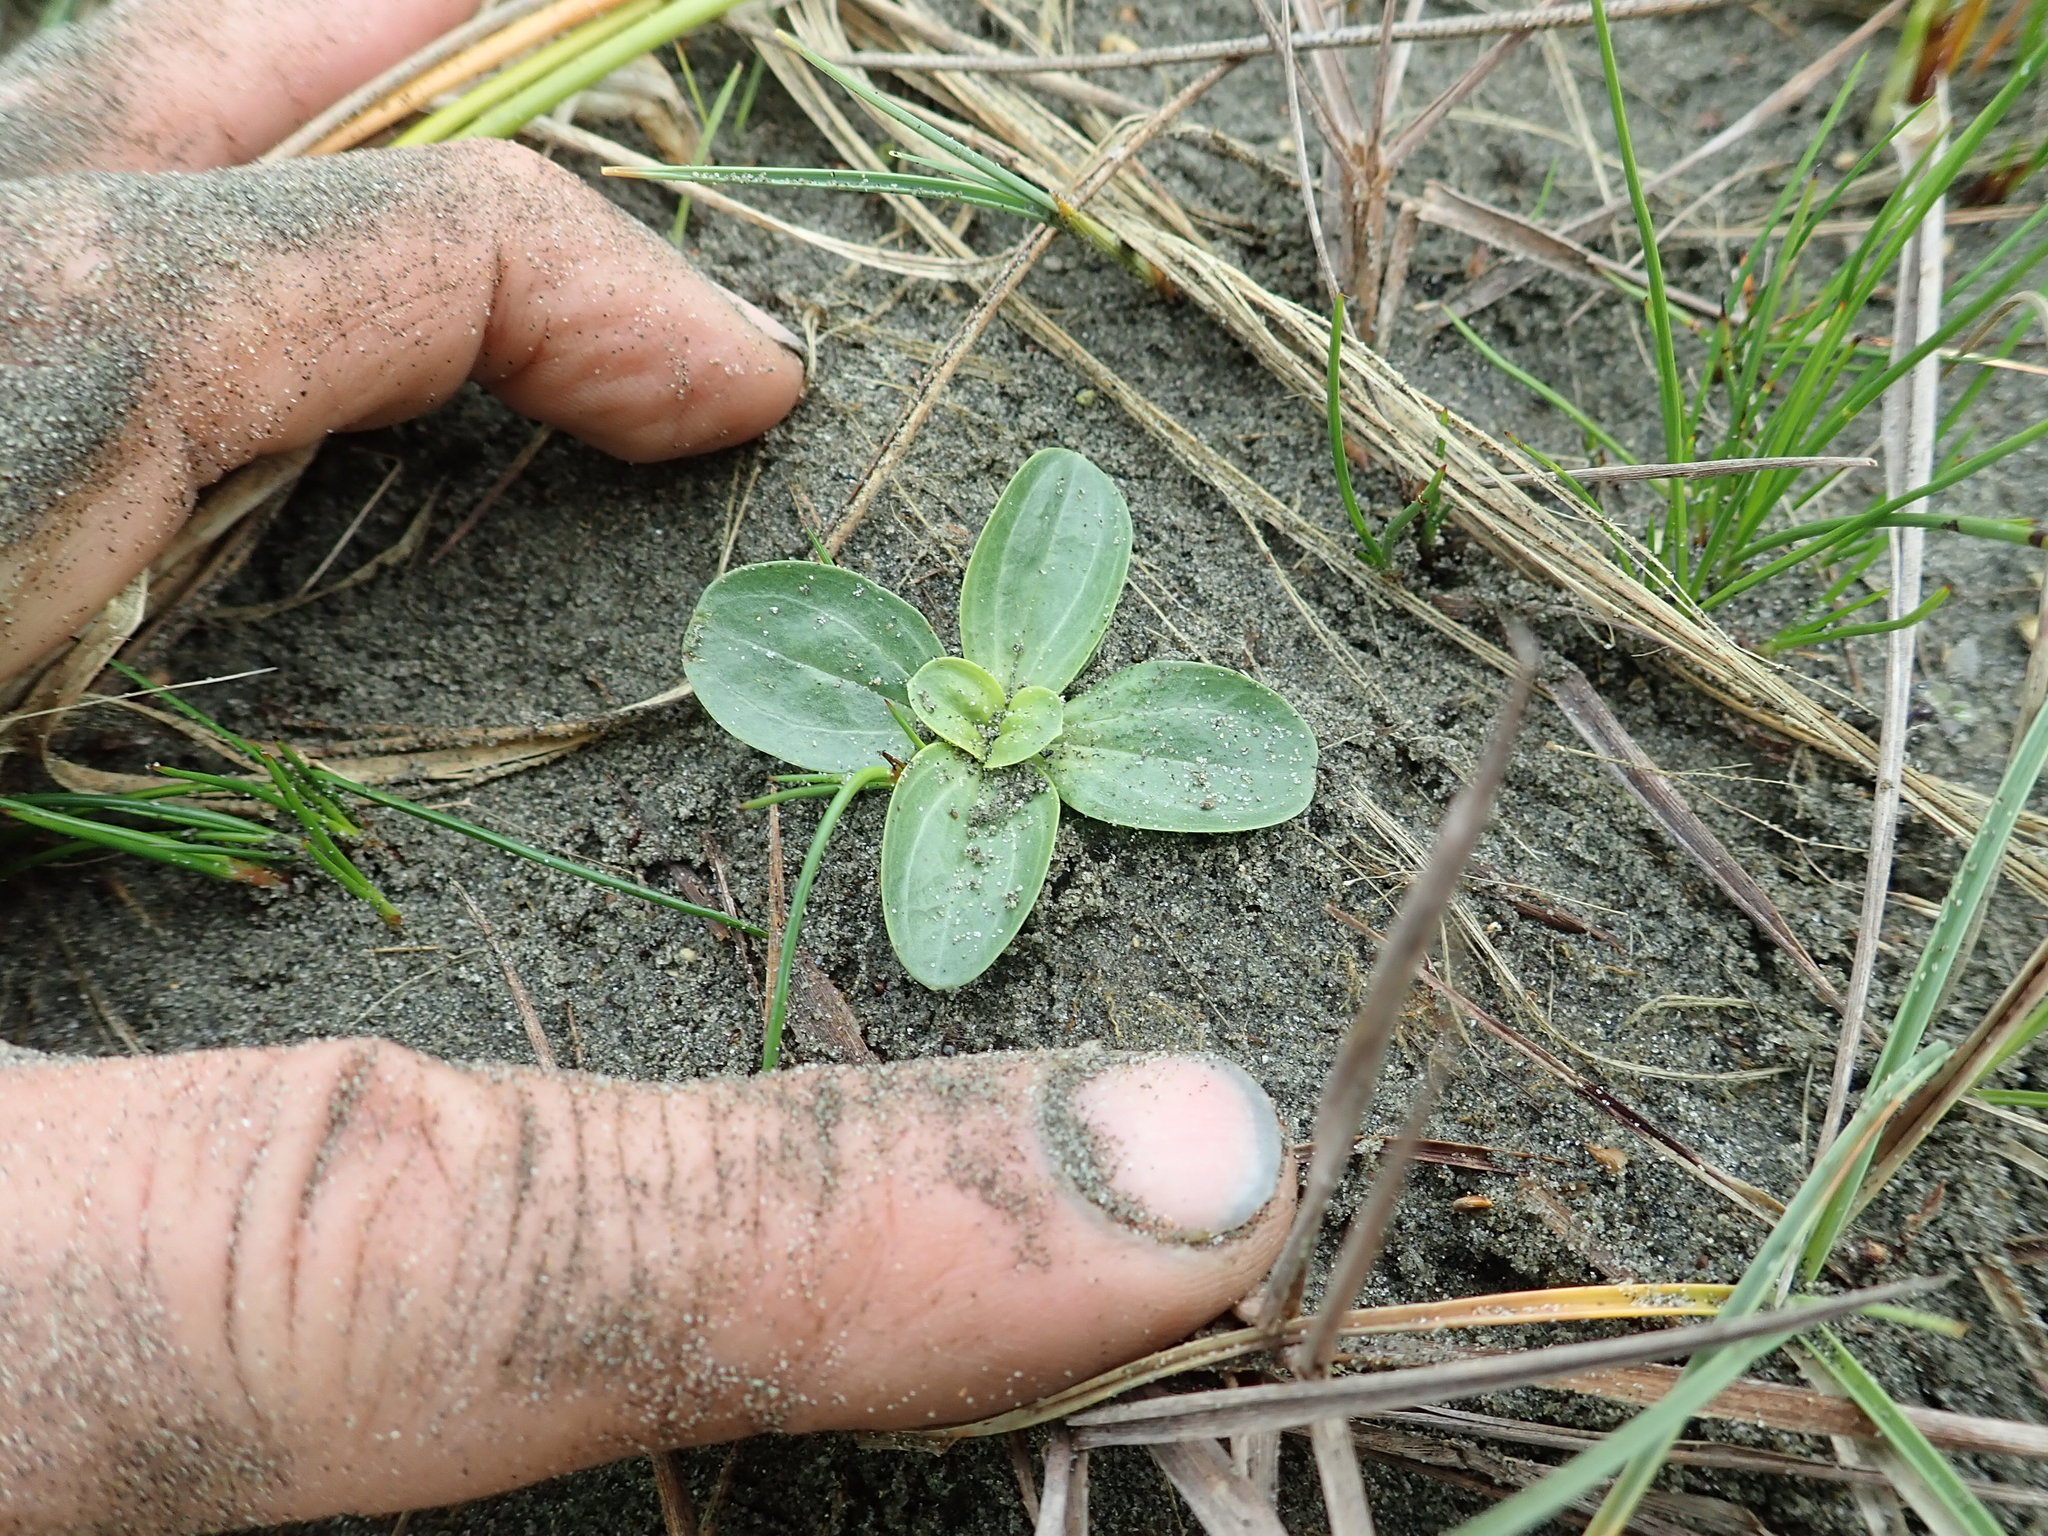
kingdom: Plantae
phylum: Tracheophyta
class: Magnoliopsida
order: Gentianales
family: Gentianaceae
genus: Centaurium
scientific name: Centaurium erythraea
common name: Common centaury
